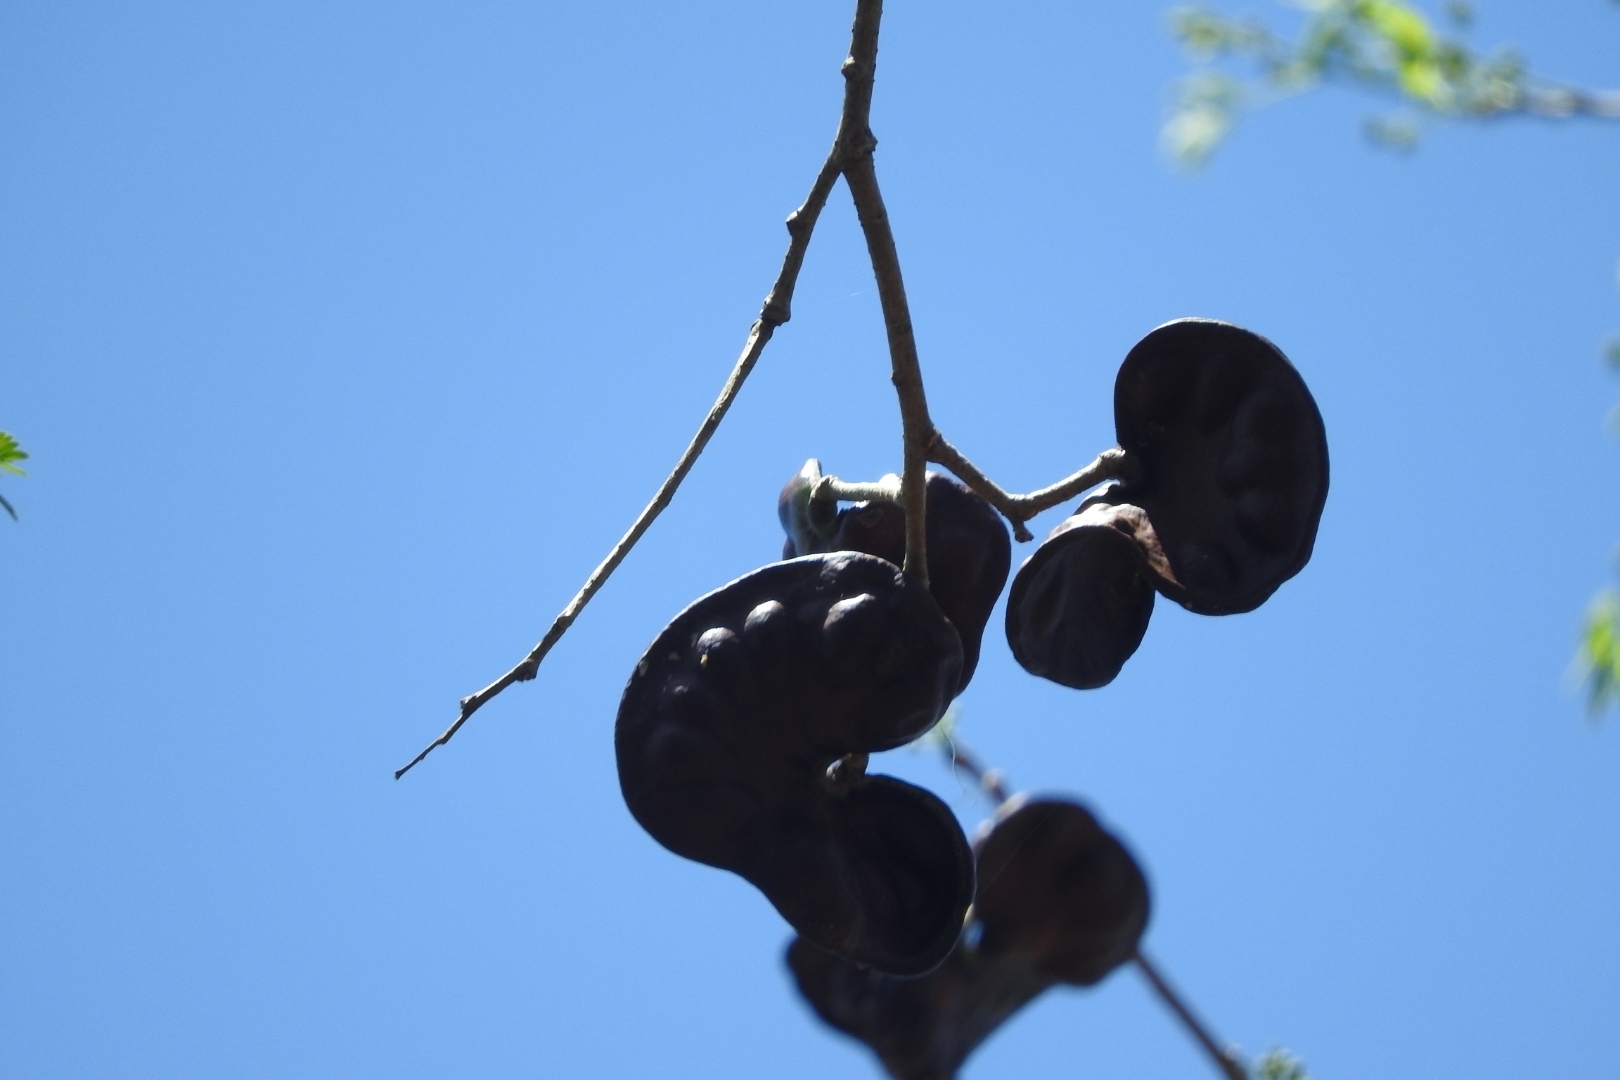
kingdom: Plantae
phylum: Tracheophyta
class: Magnoliopsida
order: Fabales
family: Fabaceae
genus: Enterolobium
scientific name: Enterolobium cyclocarpum
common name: Ear tree
